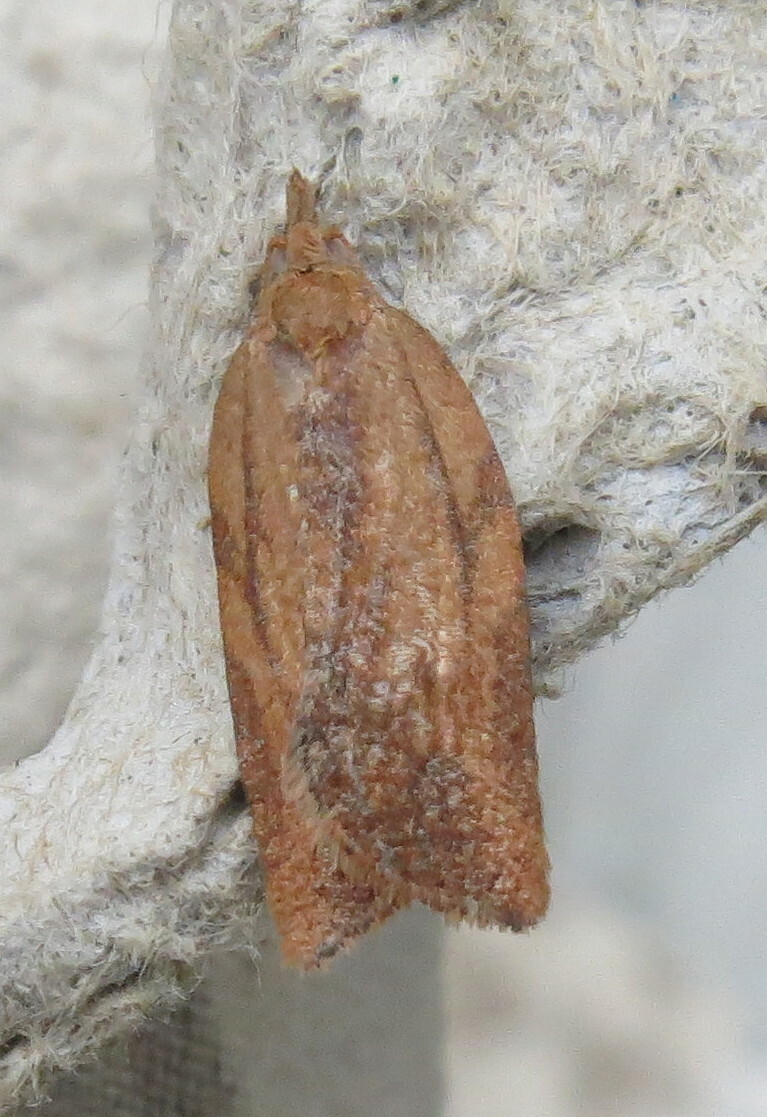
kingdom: Animalia
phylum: Arthropoda
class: Insecta
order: Lepidoptera
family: Tortricidae
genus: Epiphyas
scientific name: Epiphyas postvittana
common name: Light brown apple moth
